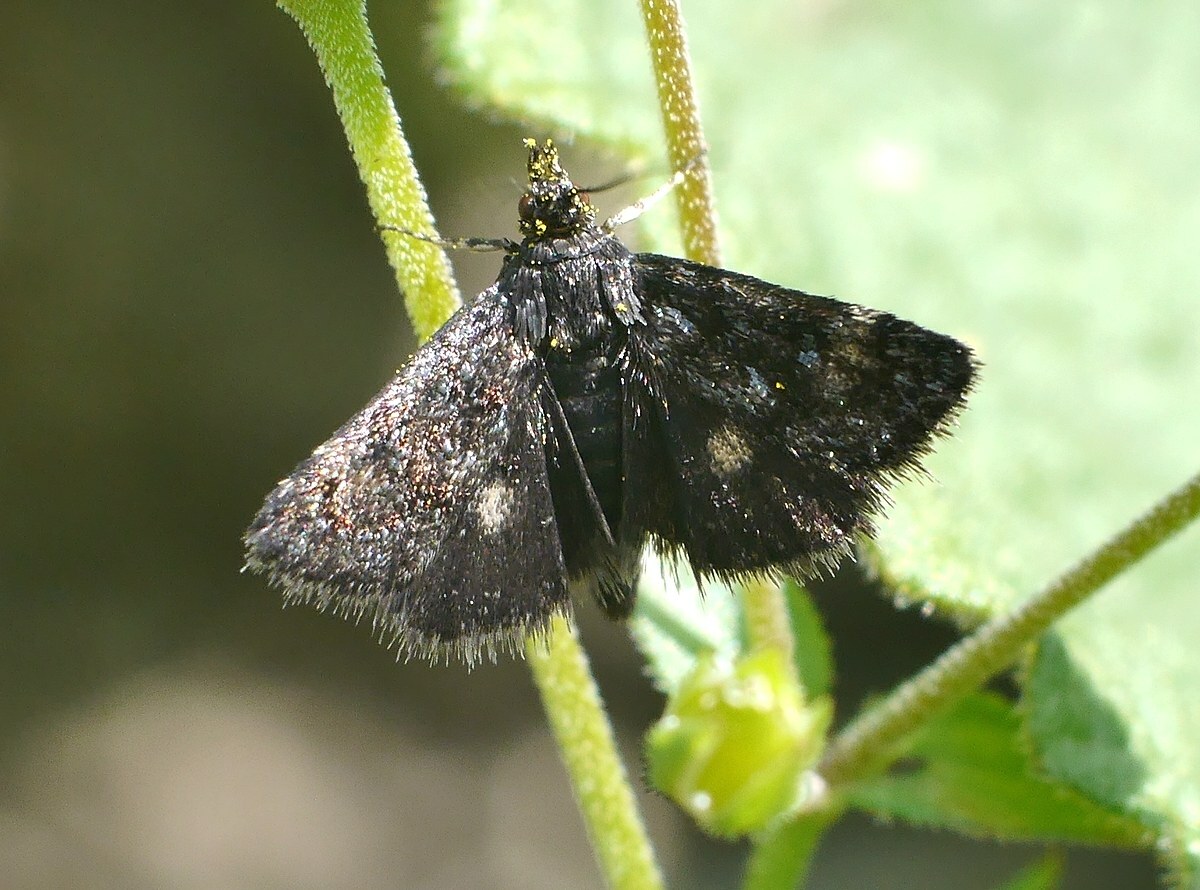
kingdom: Animalia
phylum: Arthropoda
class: Insecta
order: Lepidoptera
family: Crambidae
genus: Heliothela
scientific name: Heliothela wulfeniana
